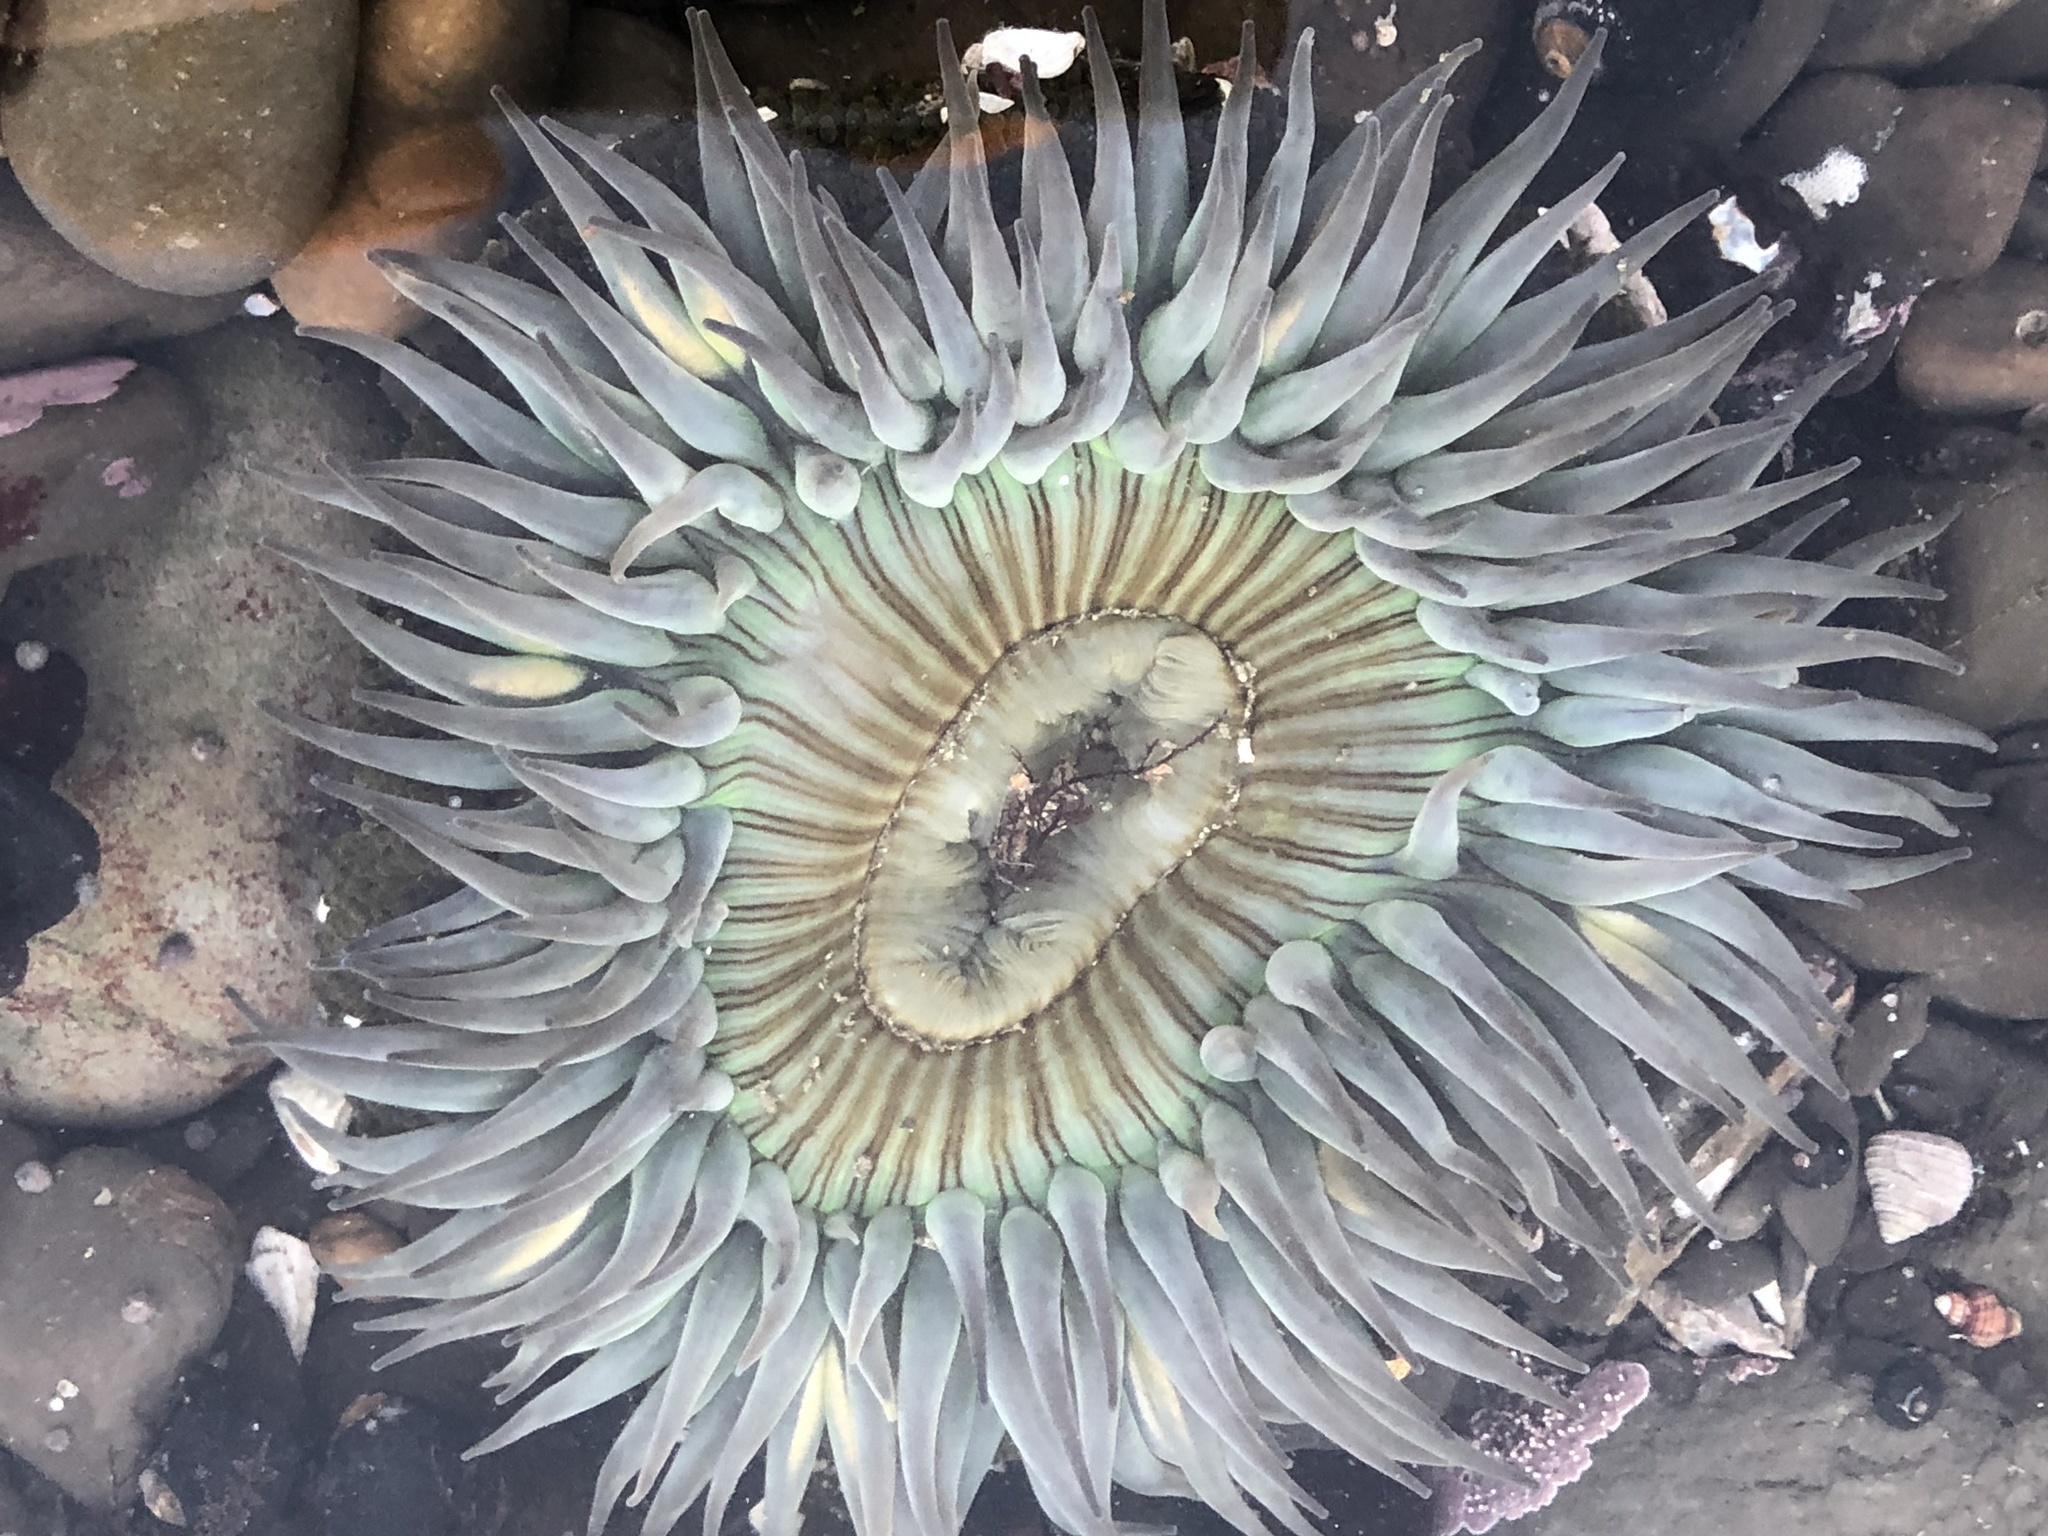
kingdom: Animalia
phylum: Cnidaria
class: Anthozoa
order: Actiniaria
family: Actiniidae
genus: Anthopleura
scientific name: Anthopleura sola
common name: Sun anemone
